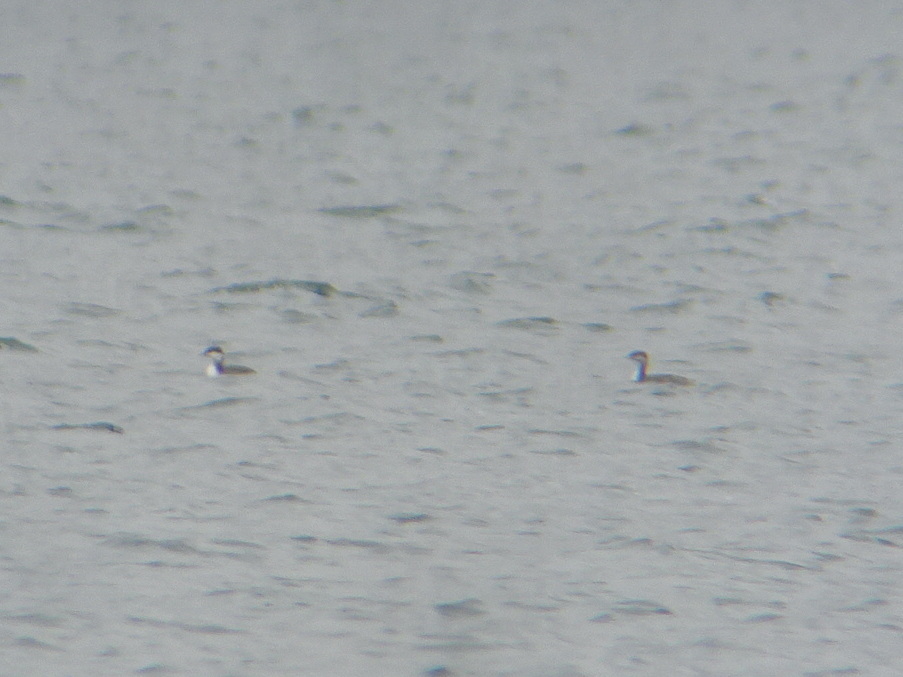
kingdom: Animalia
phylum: Chordata
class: Aves
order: Podicipediformes
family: Podicipedidae
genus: Podiceps
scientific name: Podiceps auritus
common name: Horned grebe
